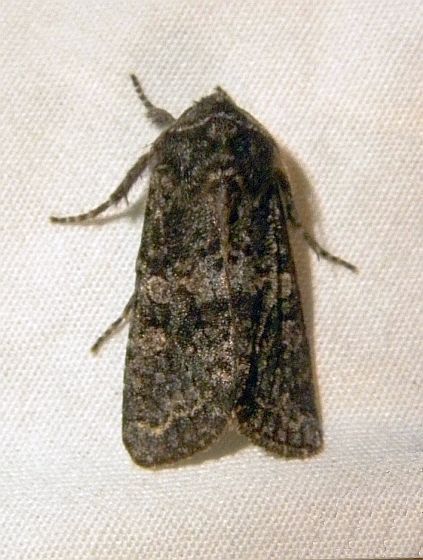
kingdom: Animalia
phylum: Arthropoda
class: Insecta
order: Lepidoptera
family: Noctuidae
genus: Egira
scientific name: Egira dolosa
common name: Lined black aspen cat.
